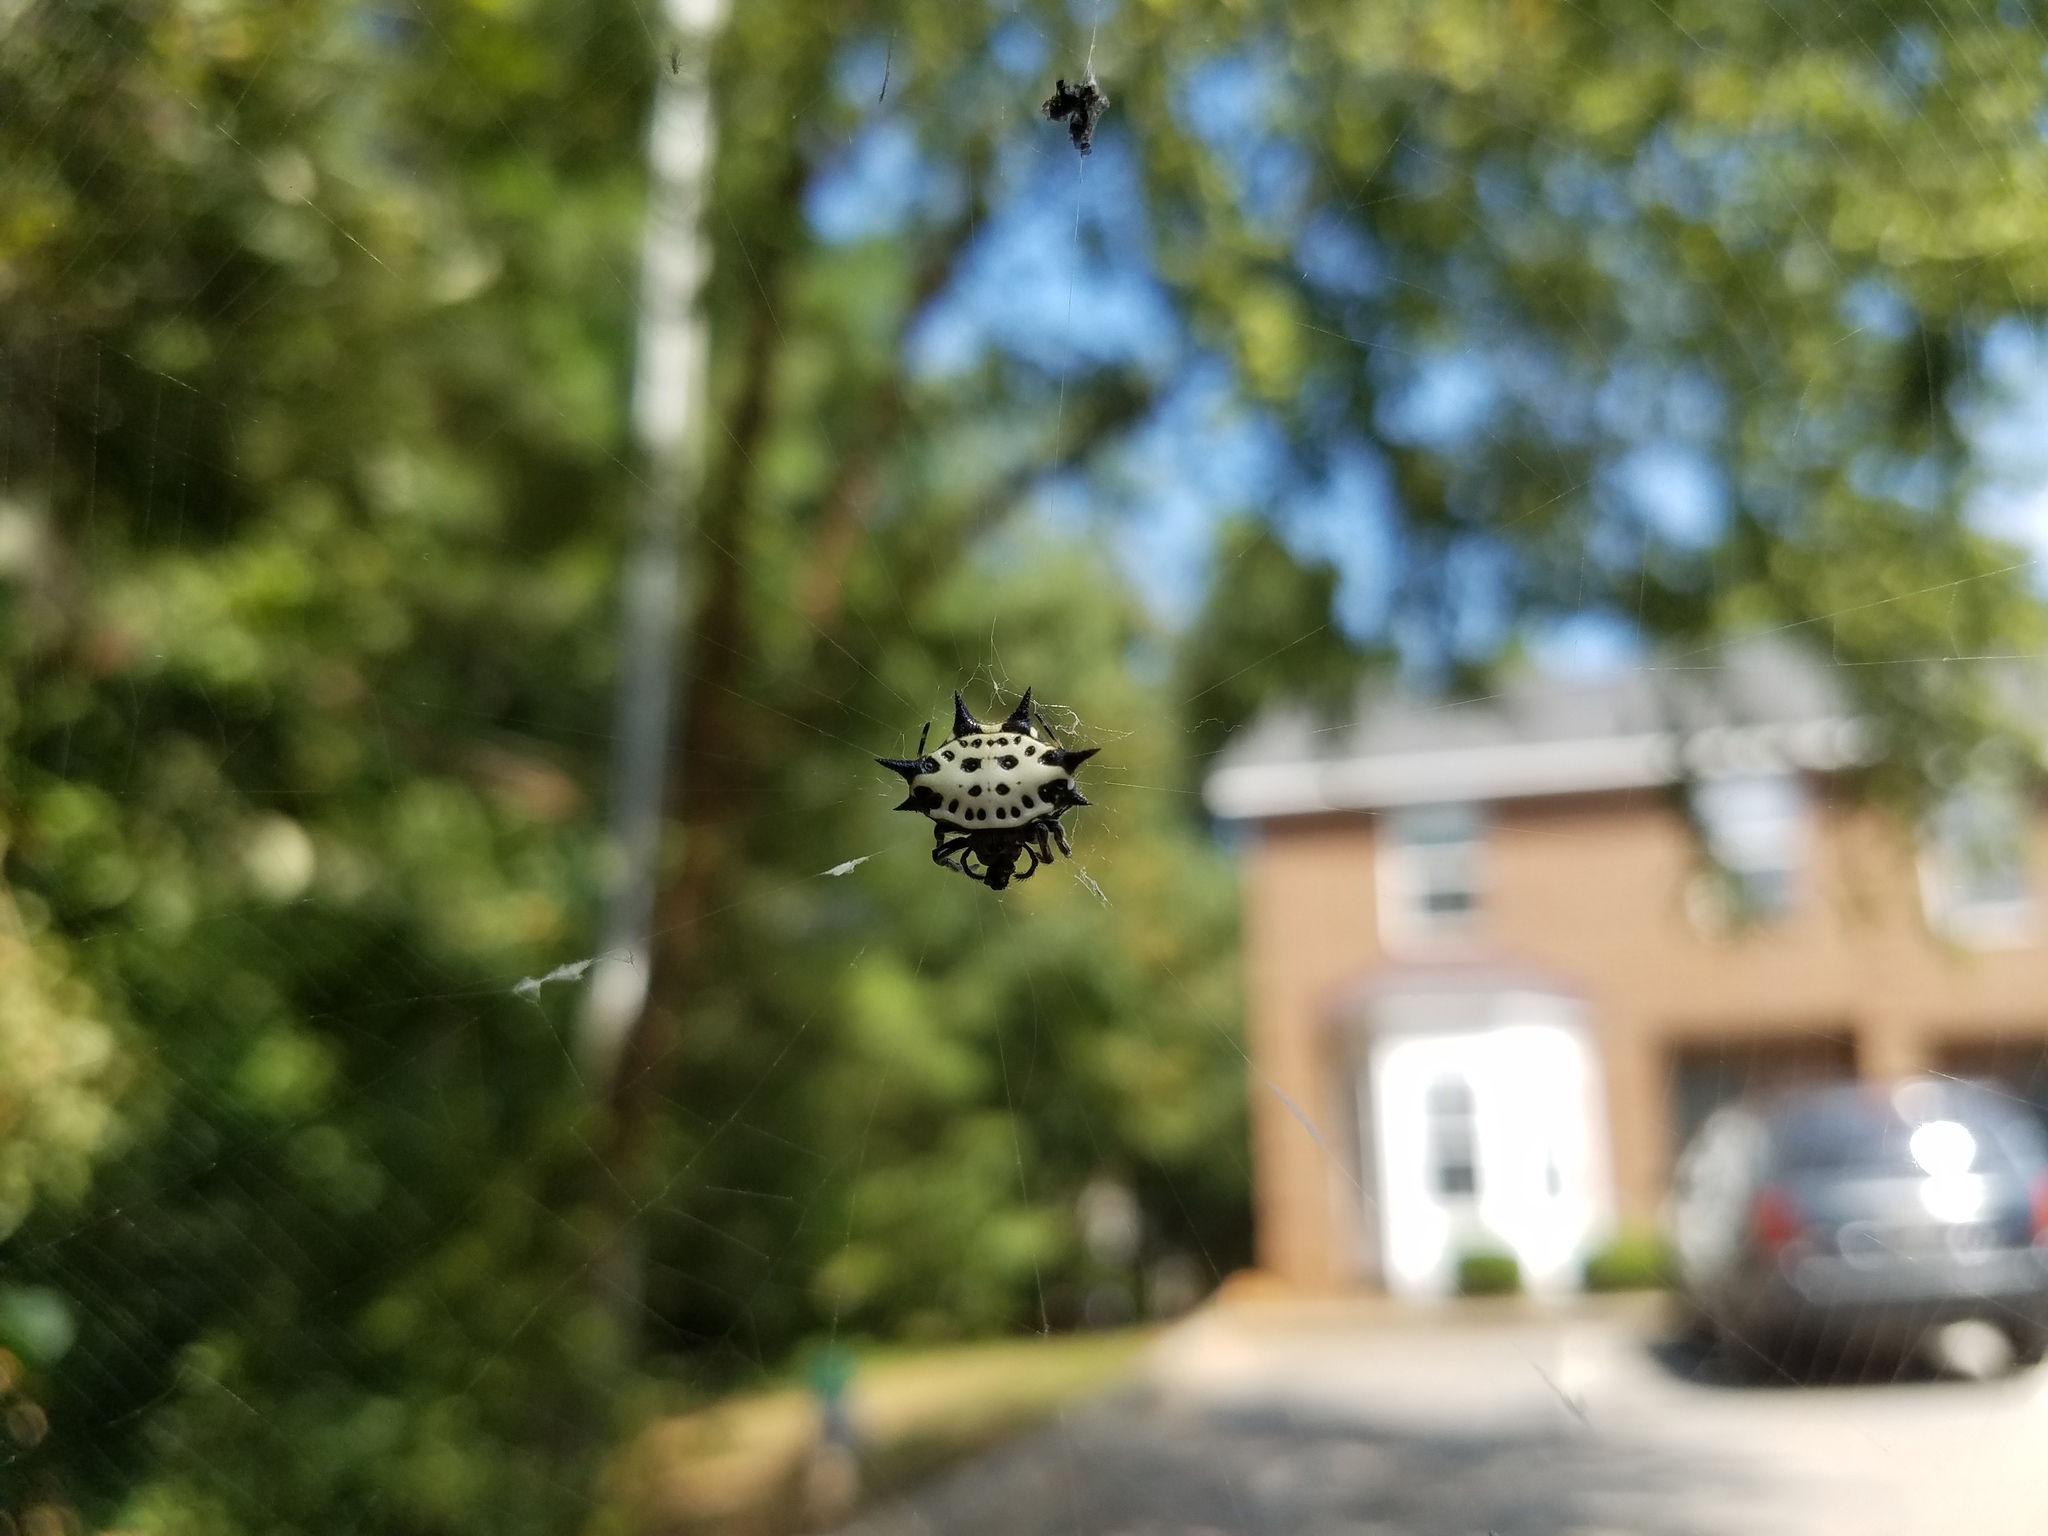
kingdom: Animalia
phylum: Arthropoda
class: Arachnida
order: Araneae
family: Araneidae
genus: Gasteracantha
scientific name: Gasteracantha cancriformis
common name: Orb weavers
